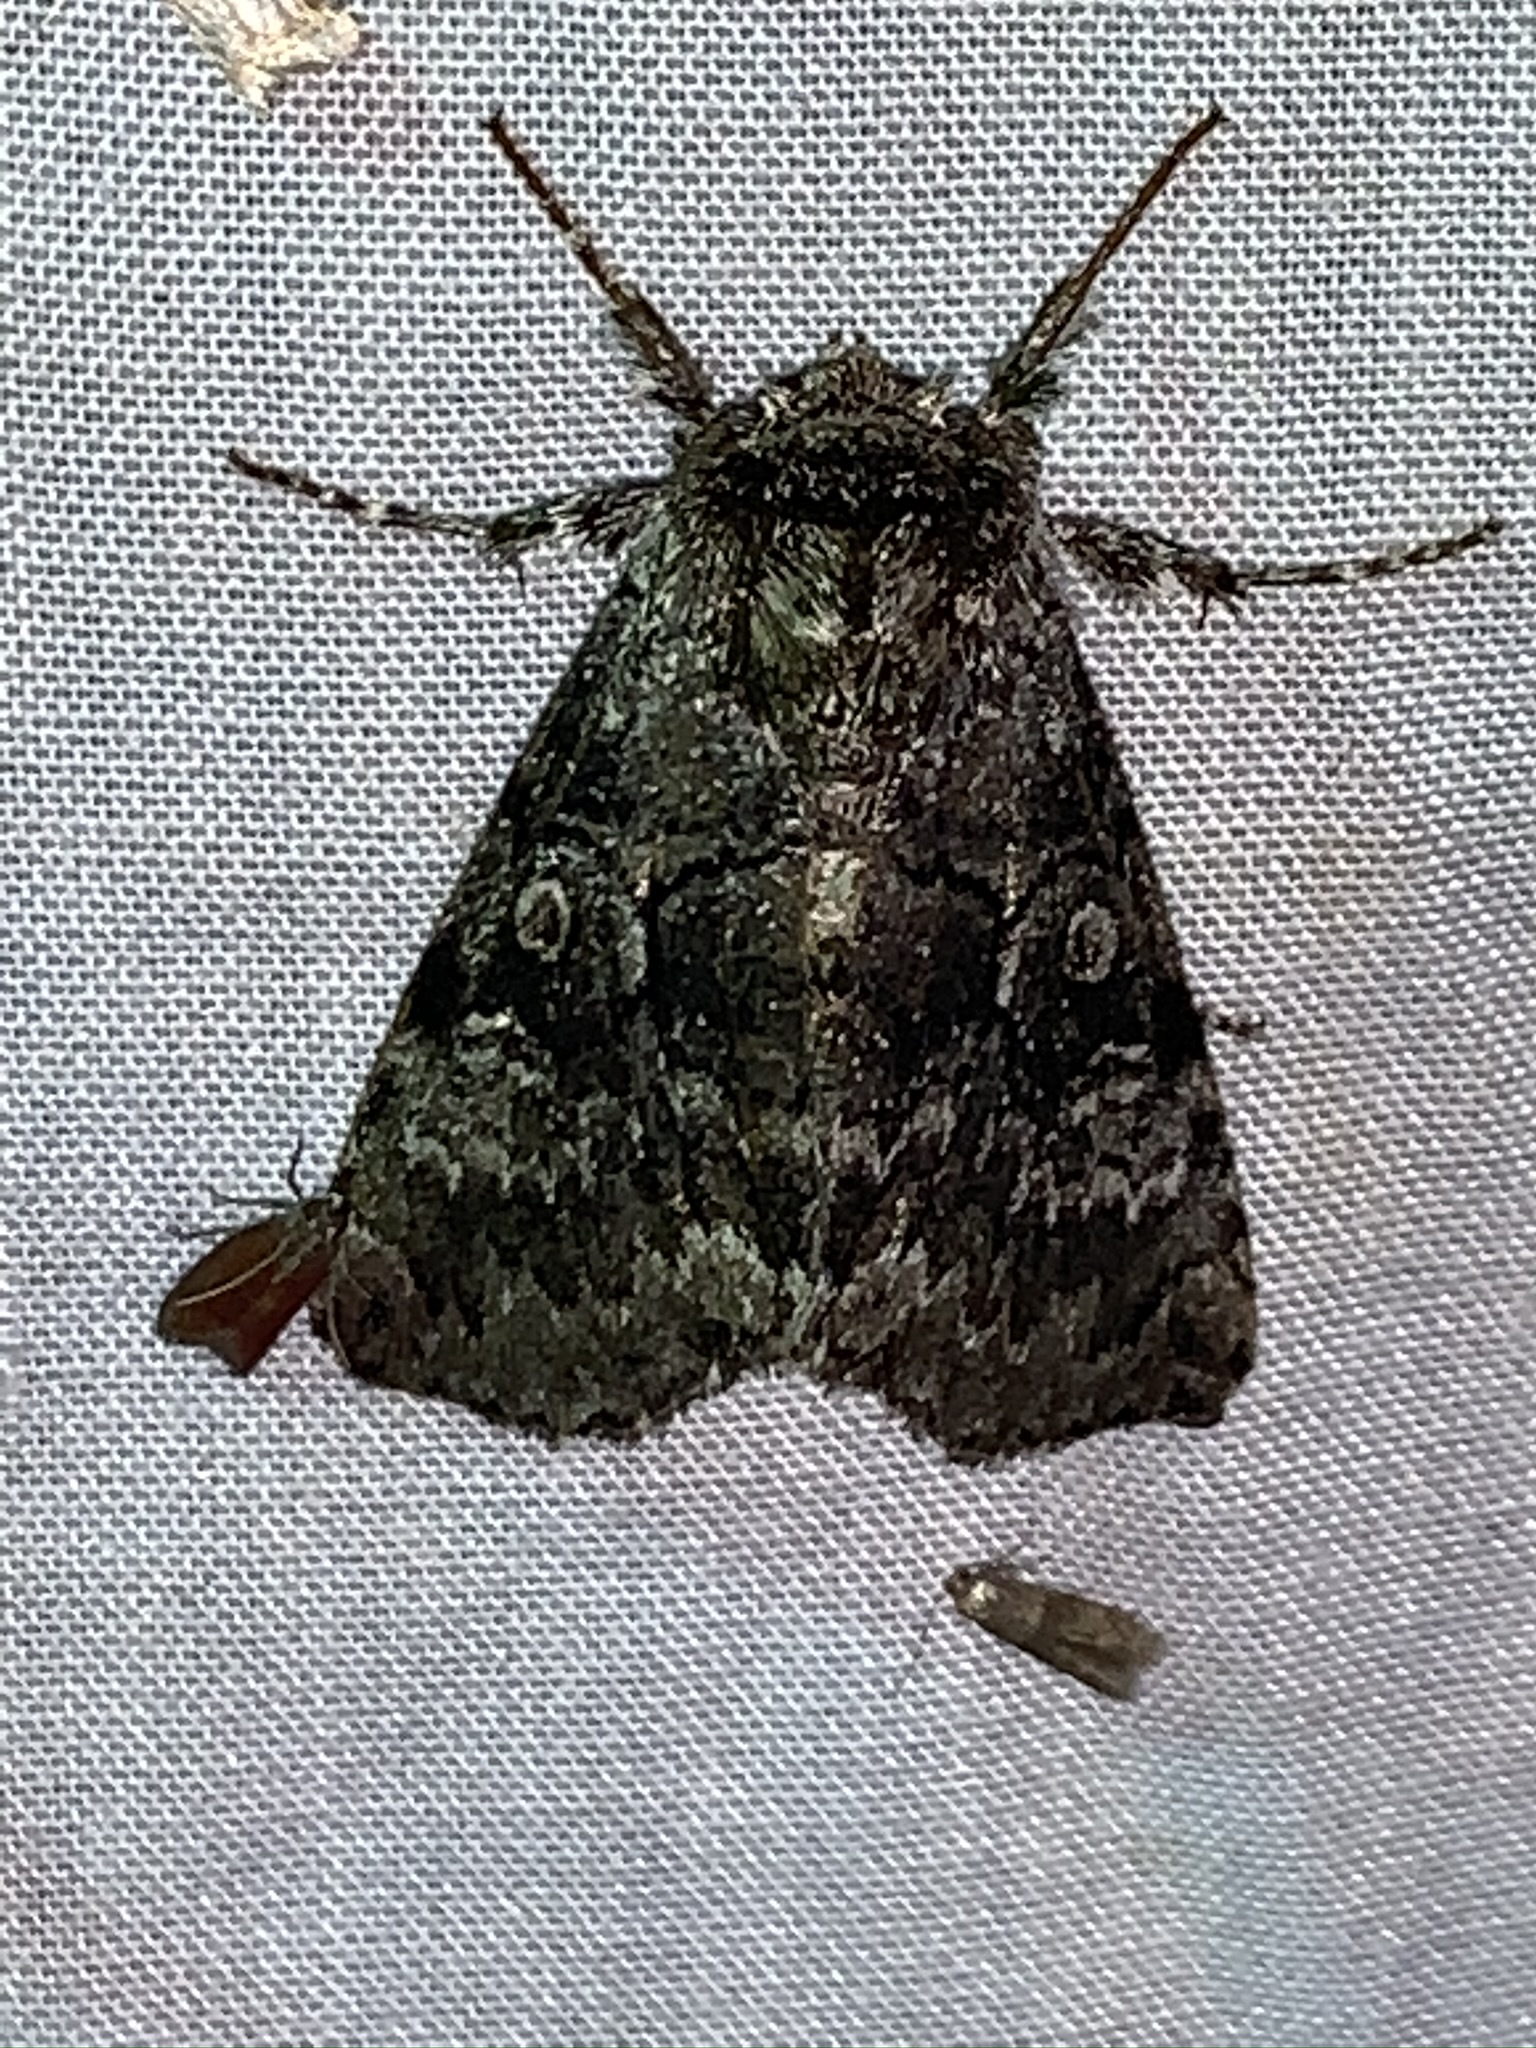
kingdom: Animalia
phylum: Arthropoda
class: Insecta
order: Lepidoptera
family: Noctuidae
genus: Charadra
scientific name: Charadra deridens
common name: Marbled tuffet
